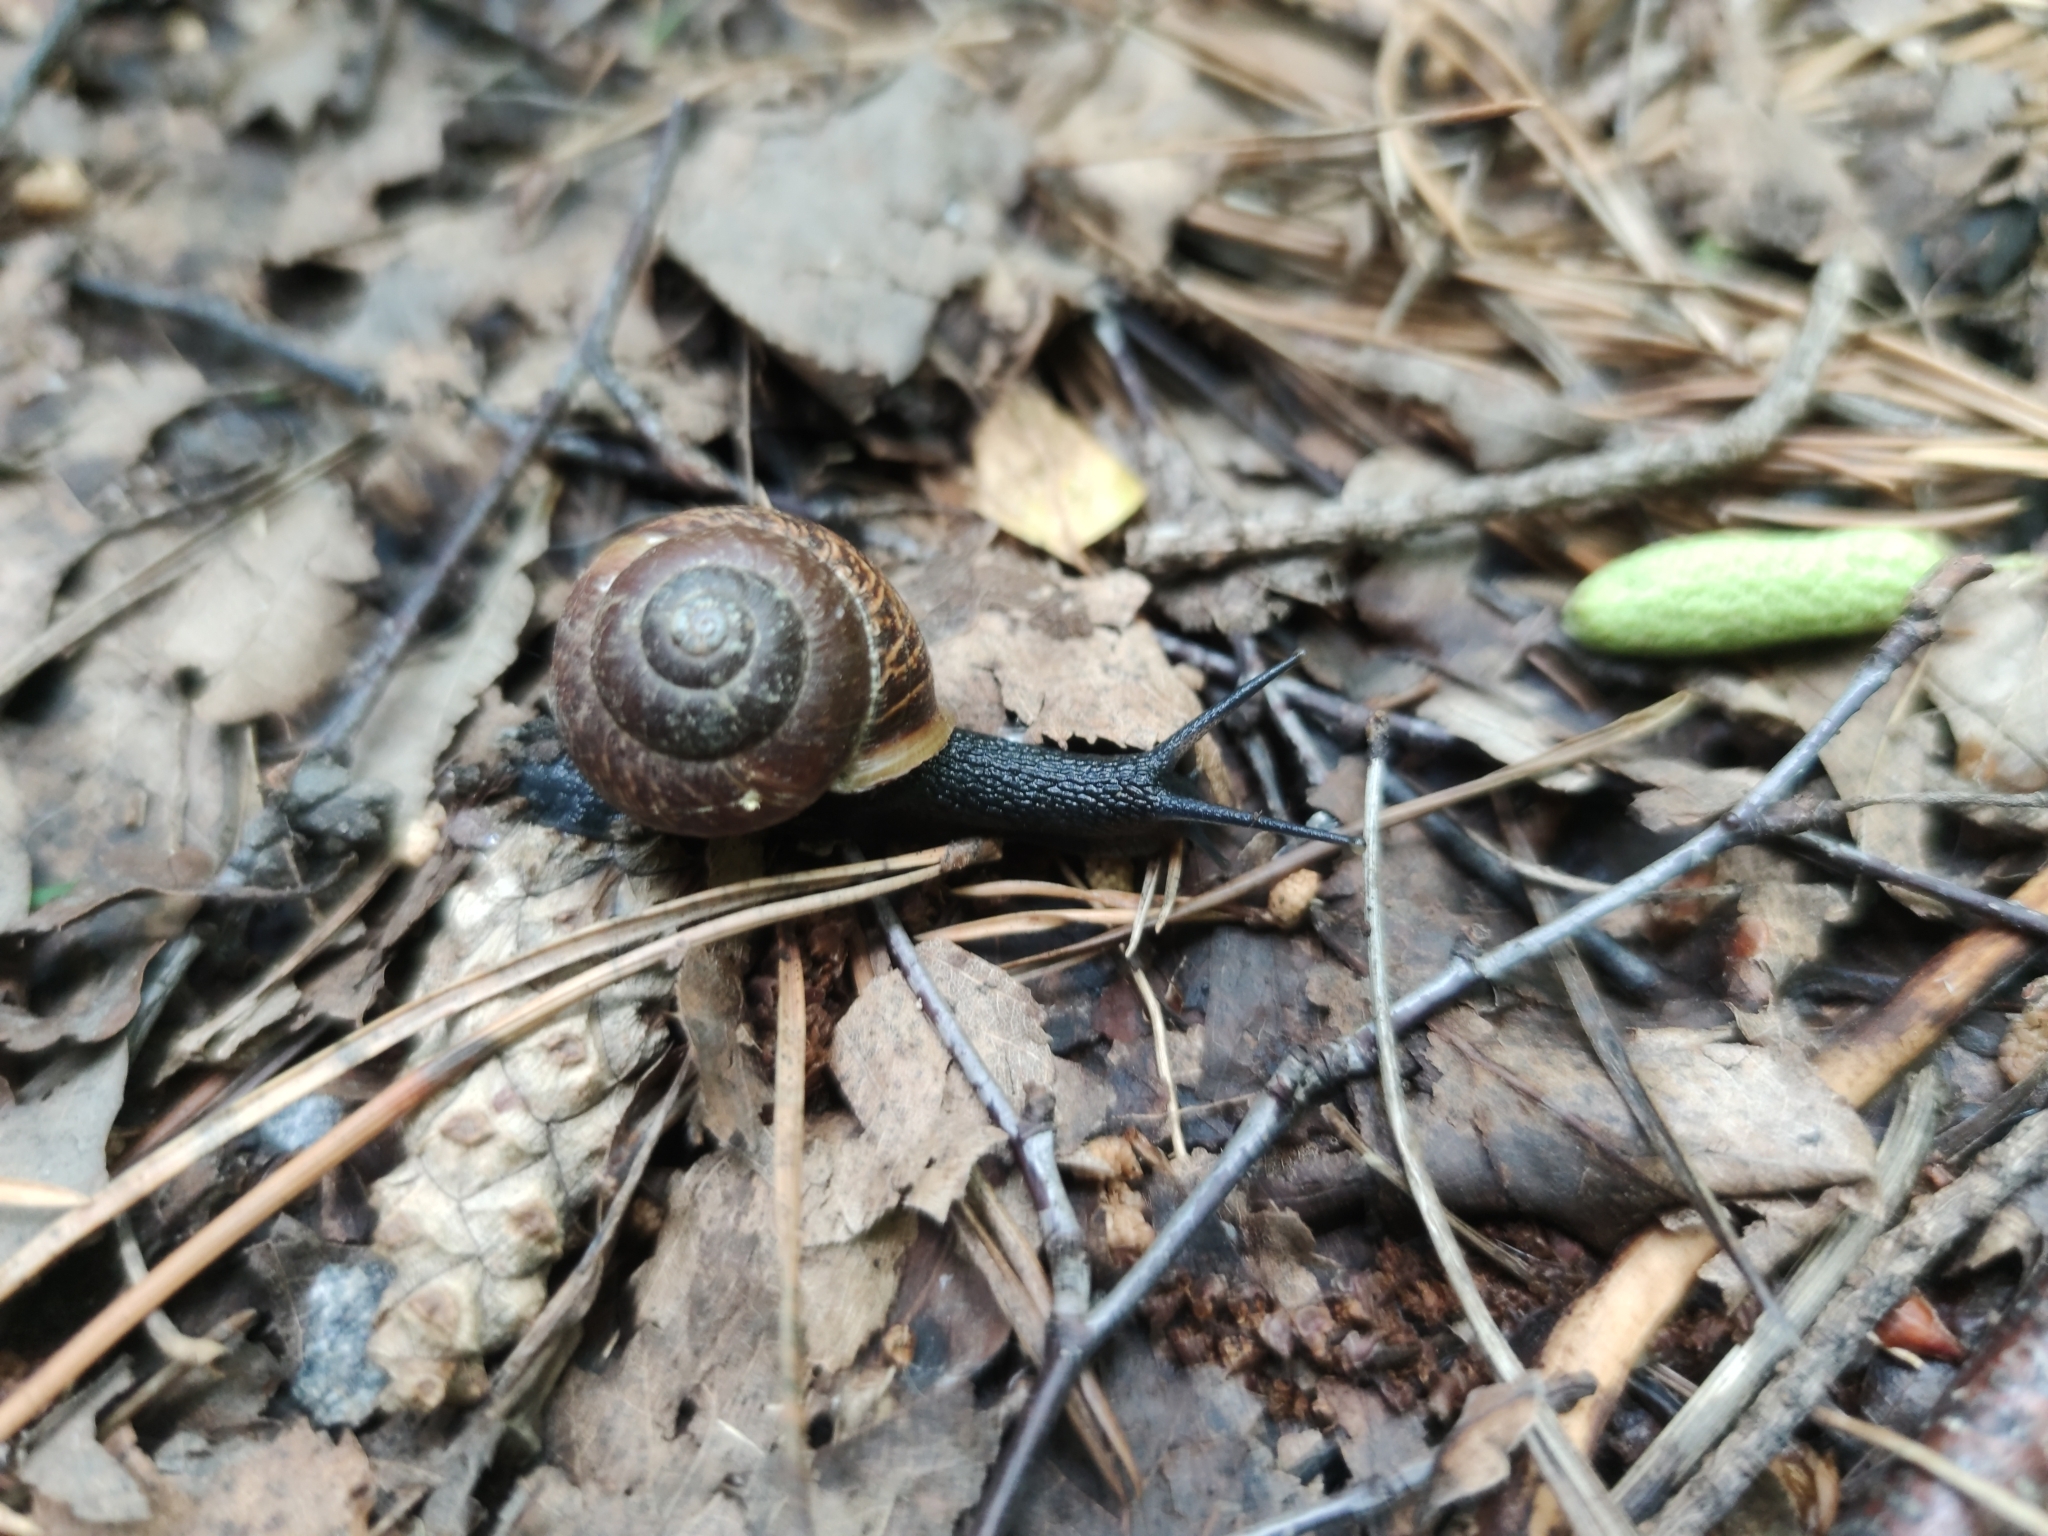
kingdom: Animalia
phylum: Mollusca
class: Gastropoda
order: Stylommatophora
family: Helicidae
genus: Arianta
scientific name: Arianta arbustorum
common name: Copse snail
